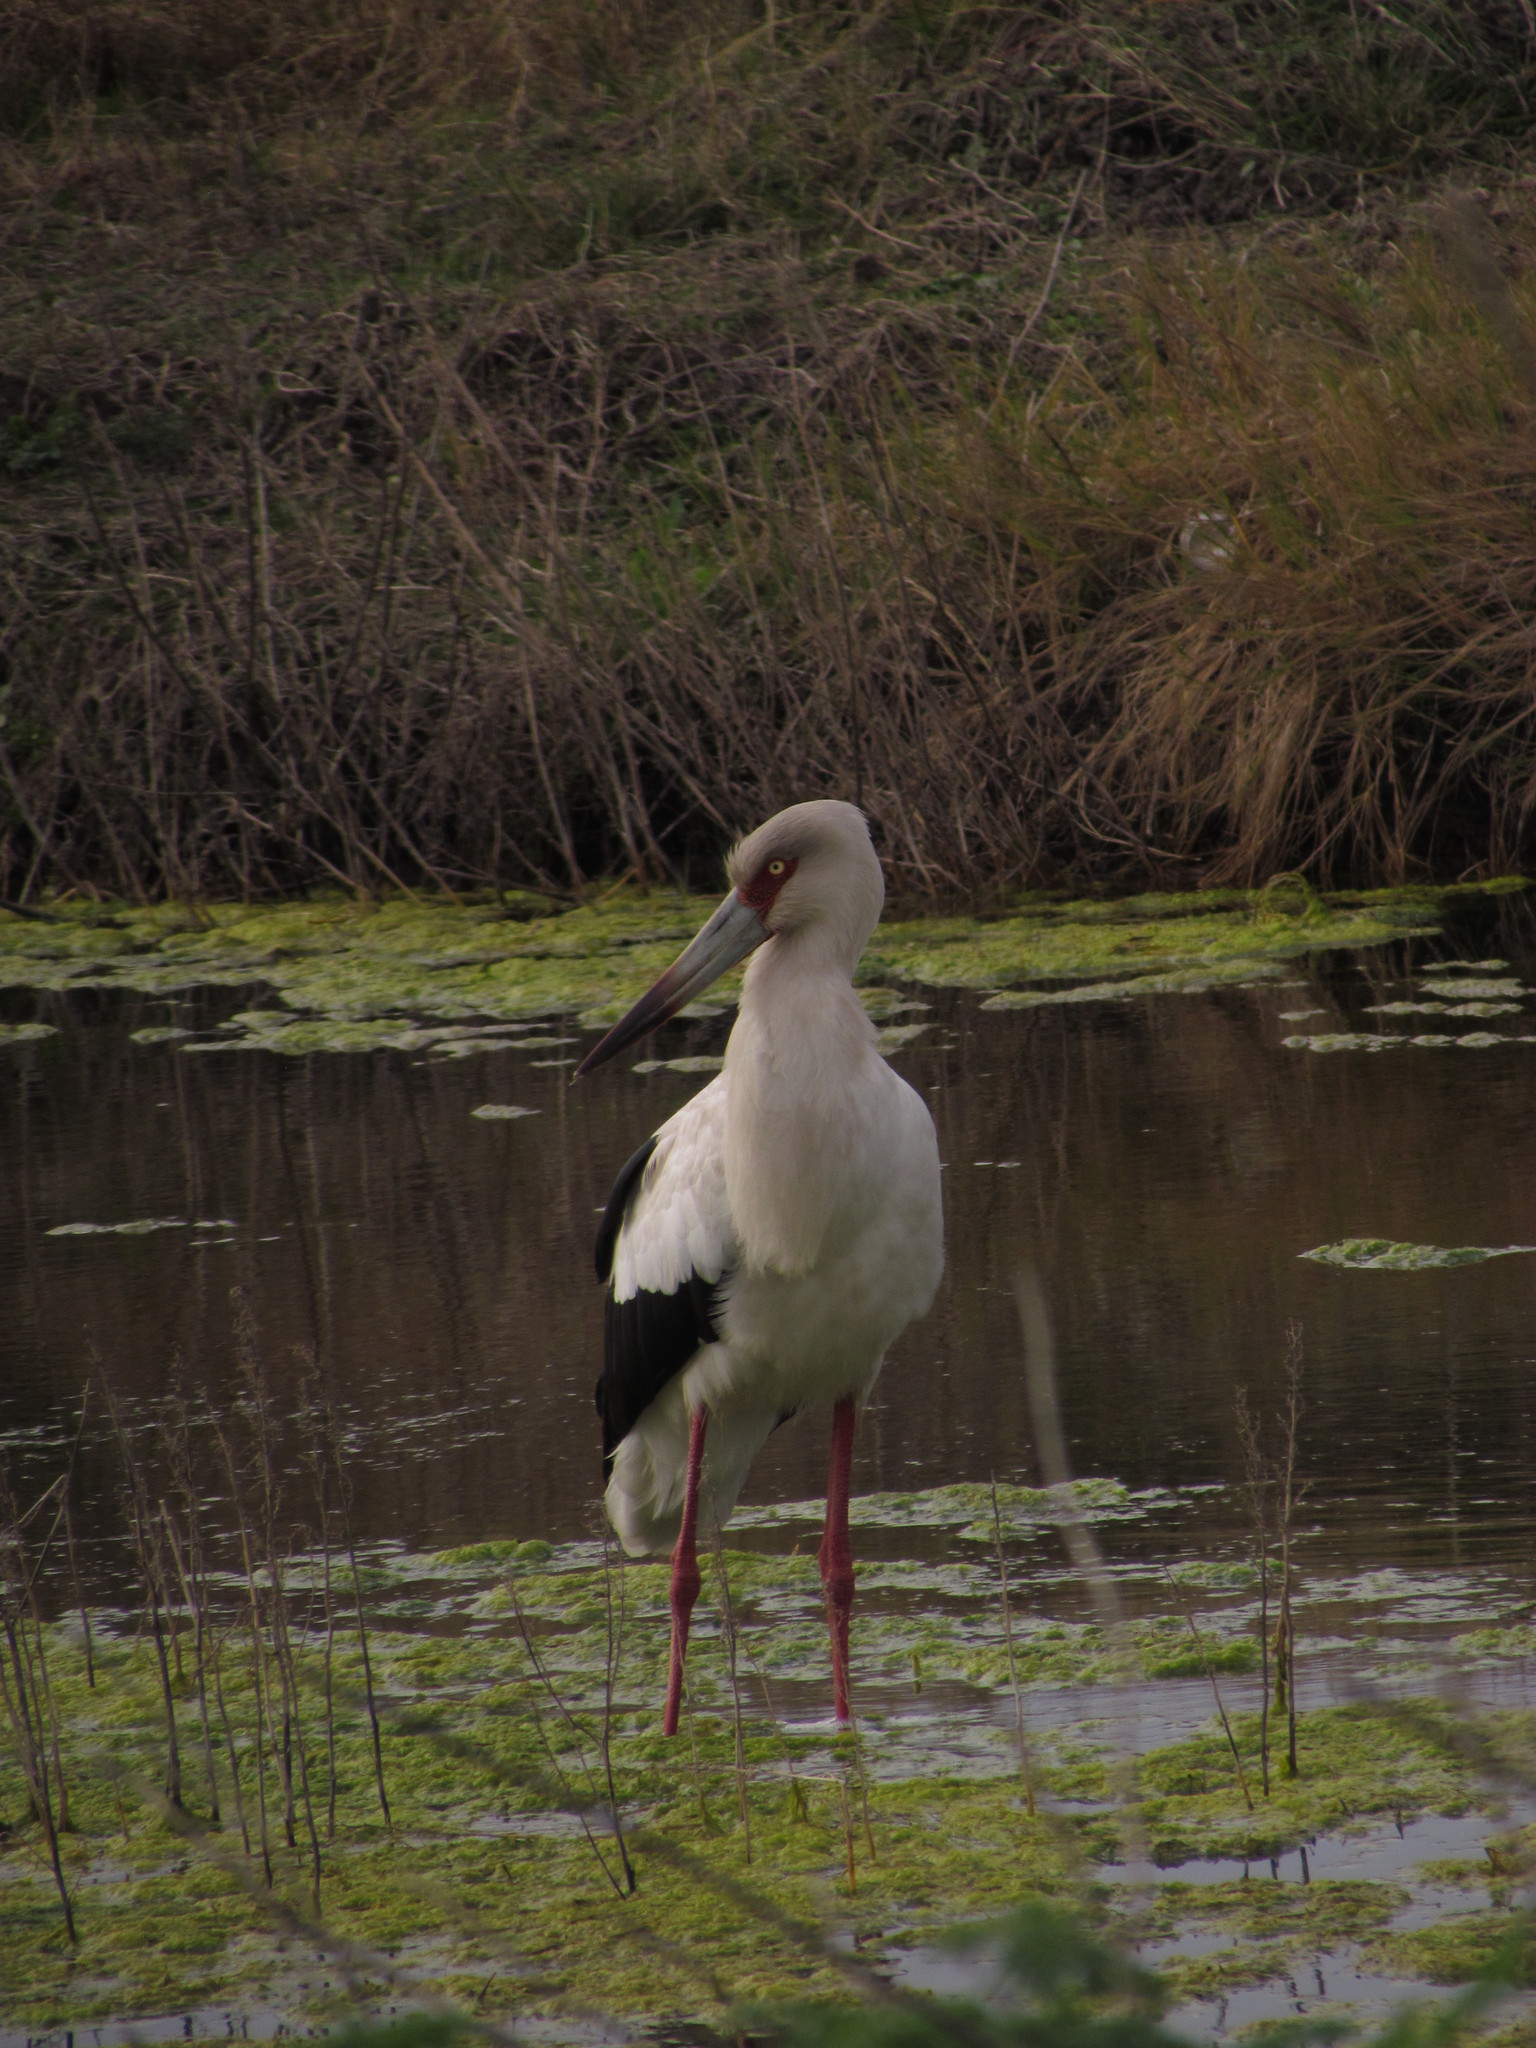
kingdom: Animalia
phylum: Chordata
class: Aves
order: Ciconiiformes
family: Ciconiidae
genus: Ciconia
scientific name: Ciconia maguari
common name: Maguari stork
